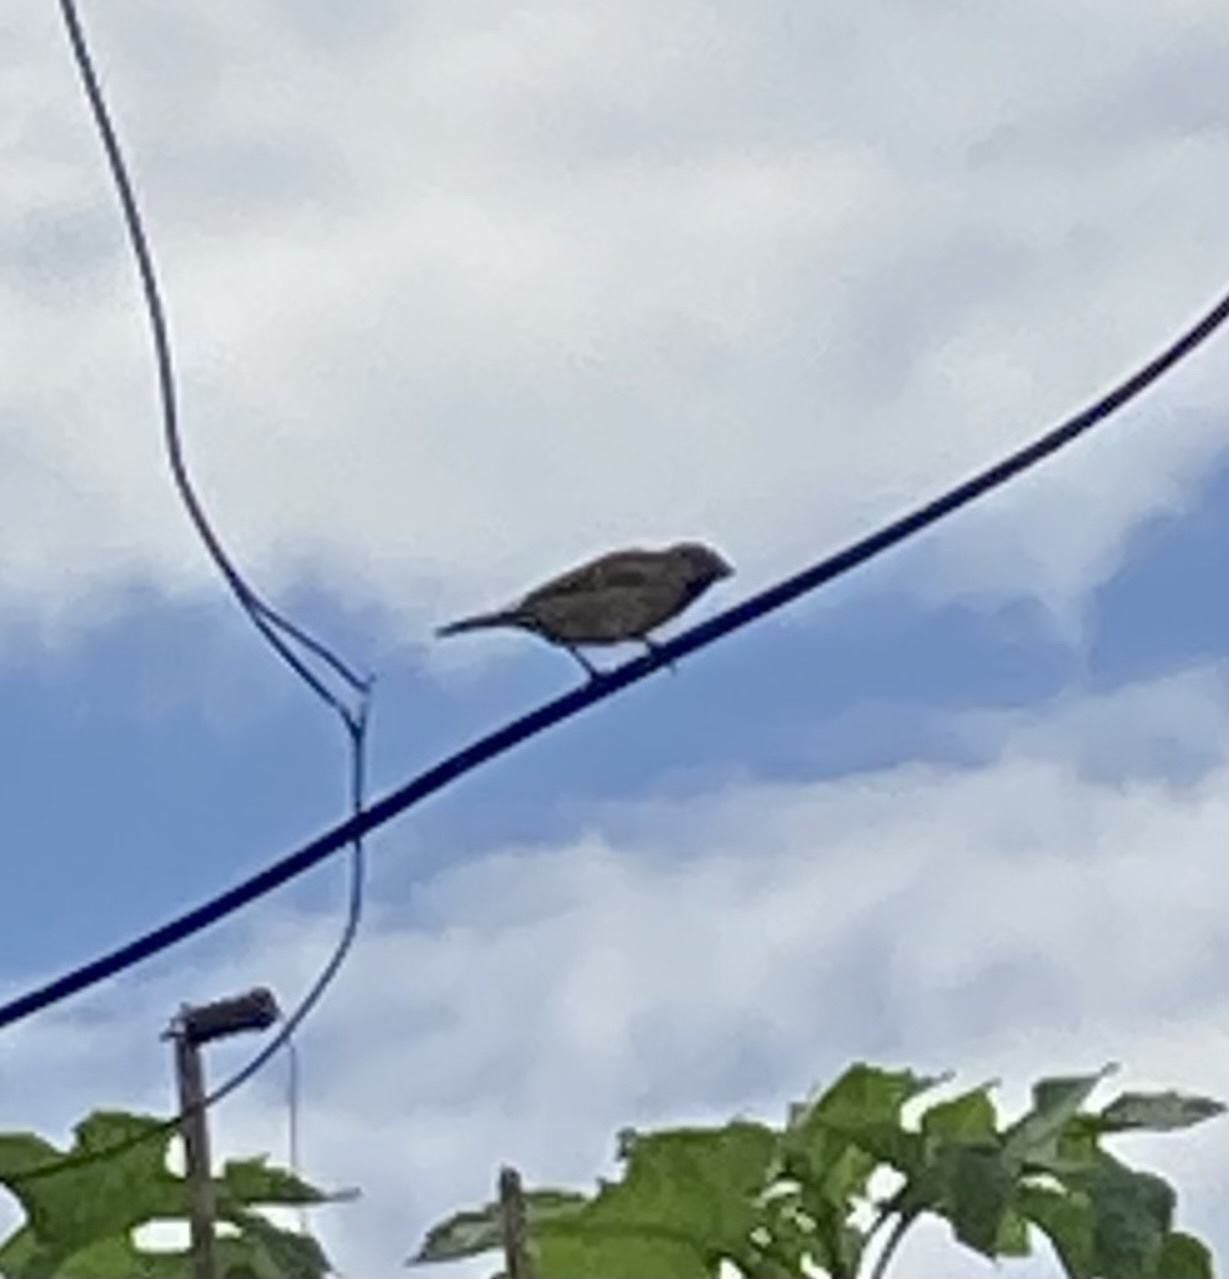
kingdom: Animalia
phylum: Chordata
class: Aves
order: Passeriformes
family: Passeridae
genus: Passer
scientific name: Passer domesticus
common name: House sparrow
